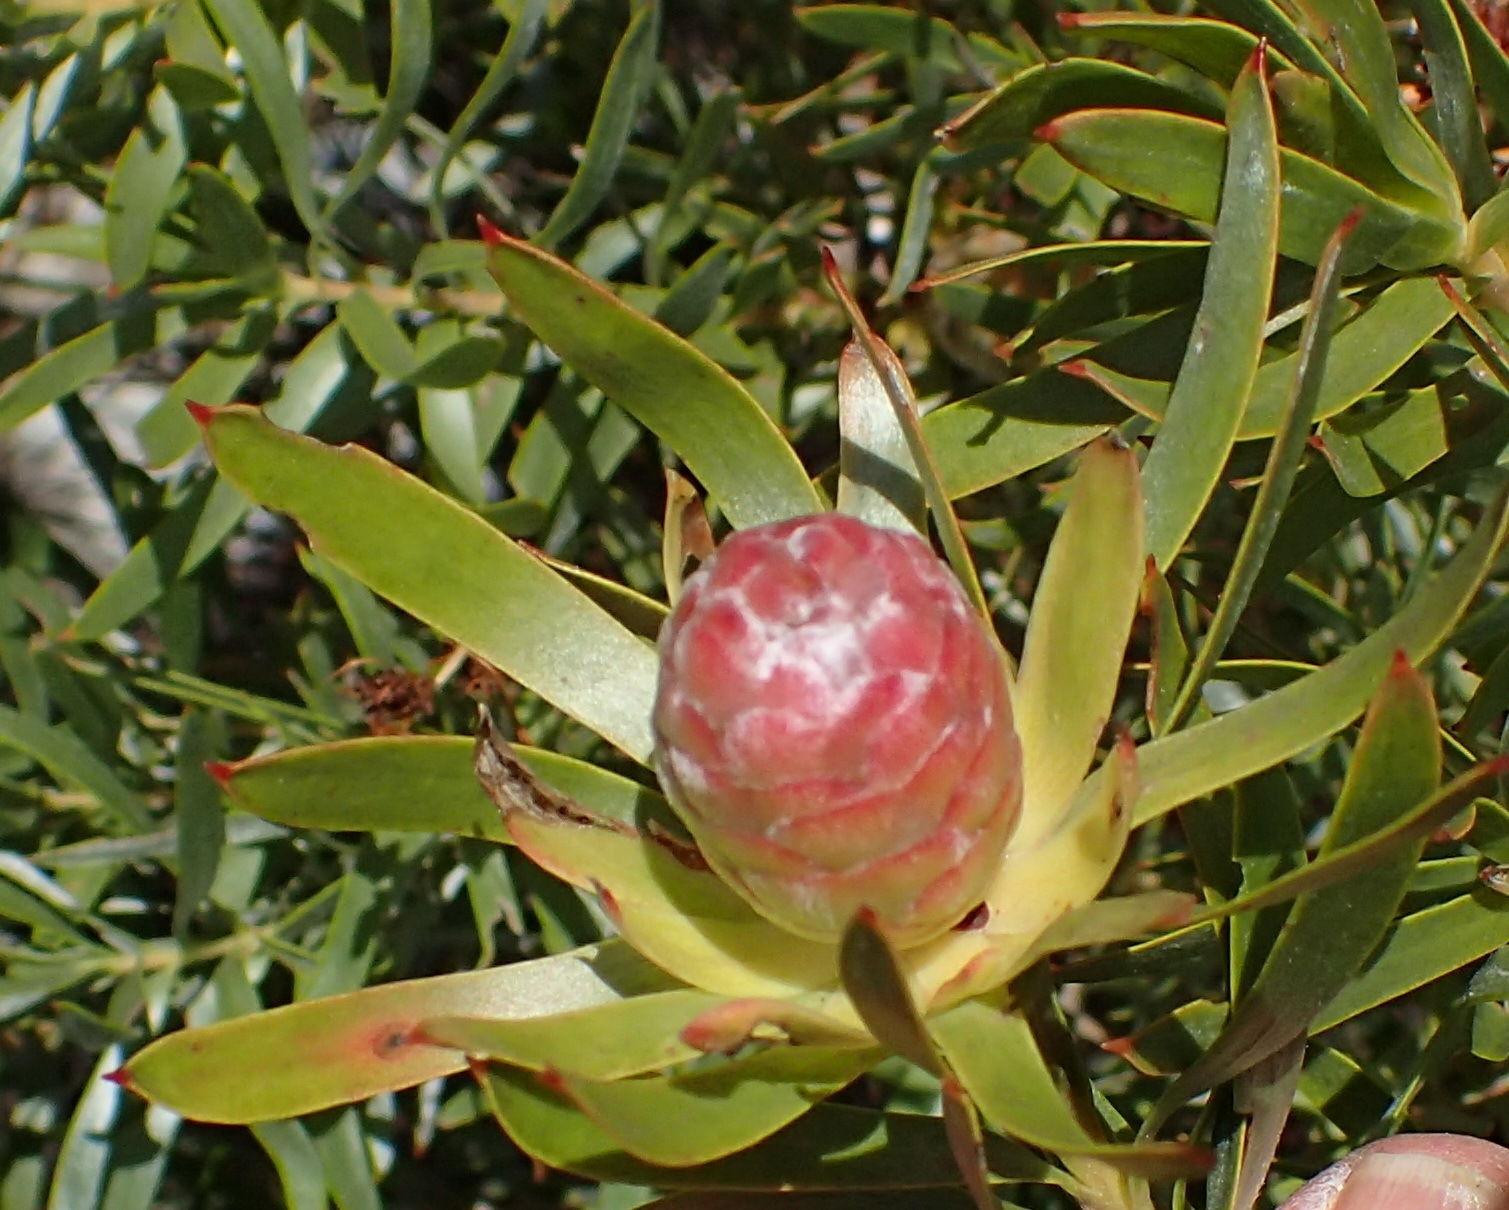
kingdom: Plantae
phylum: Tracheophyta
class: Magnoliopsida
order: Proteales
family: Proteaceae
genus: Leucadendron
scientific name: Leucadendron xanthoconus
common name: Sickle-leaf conebush
